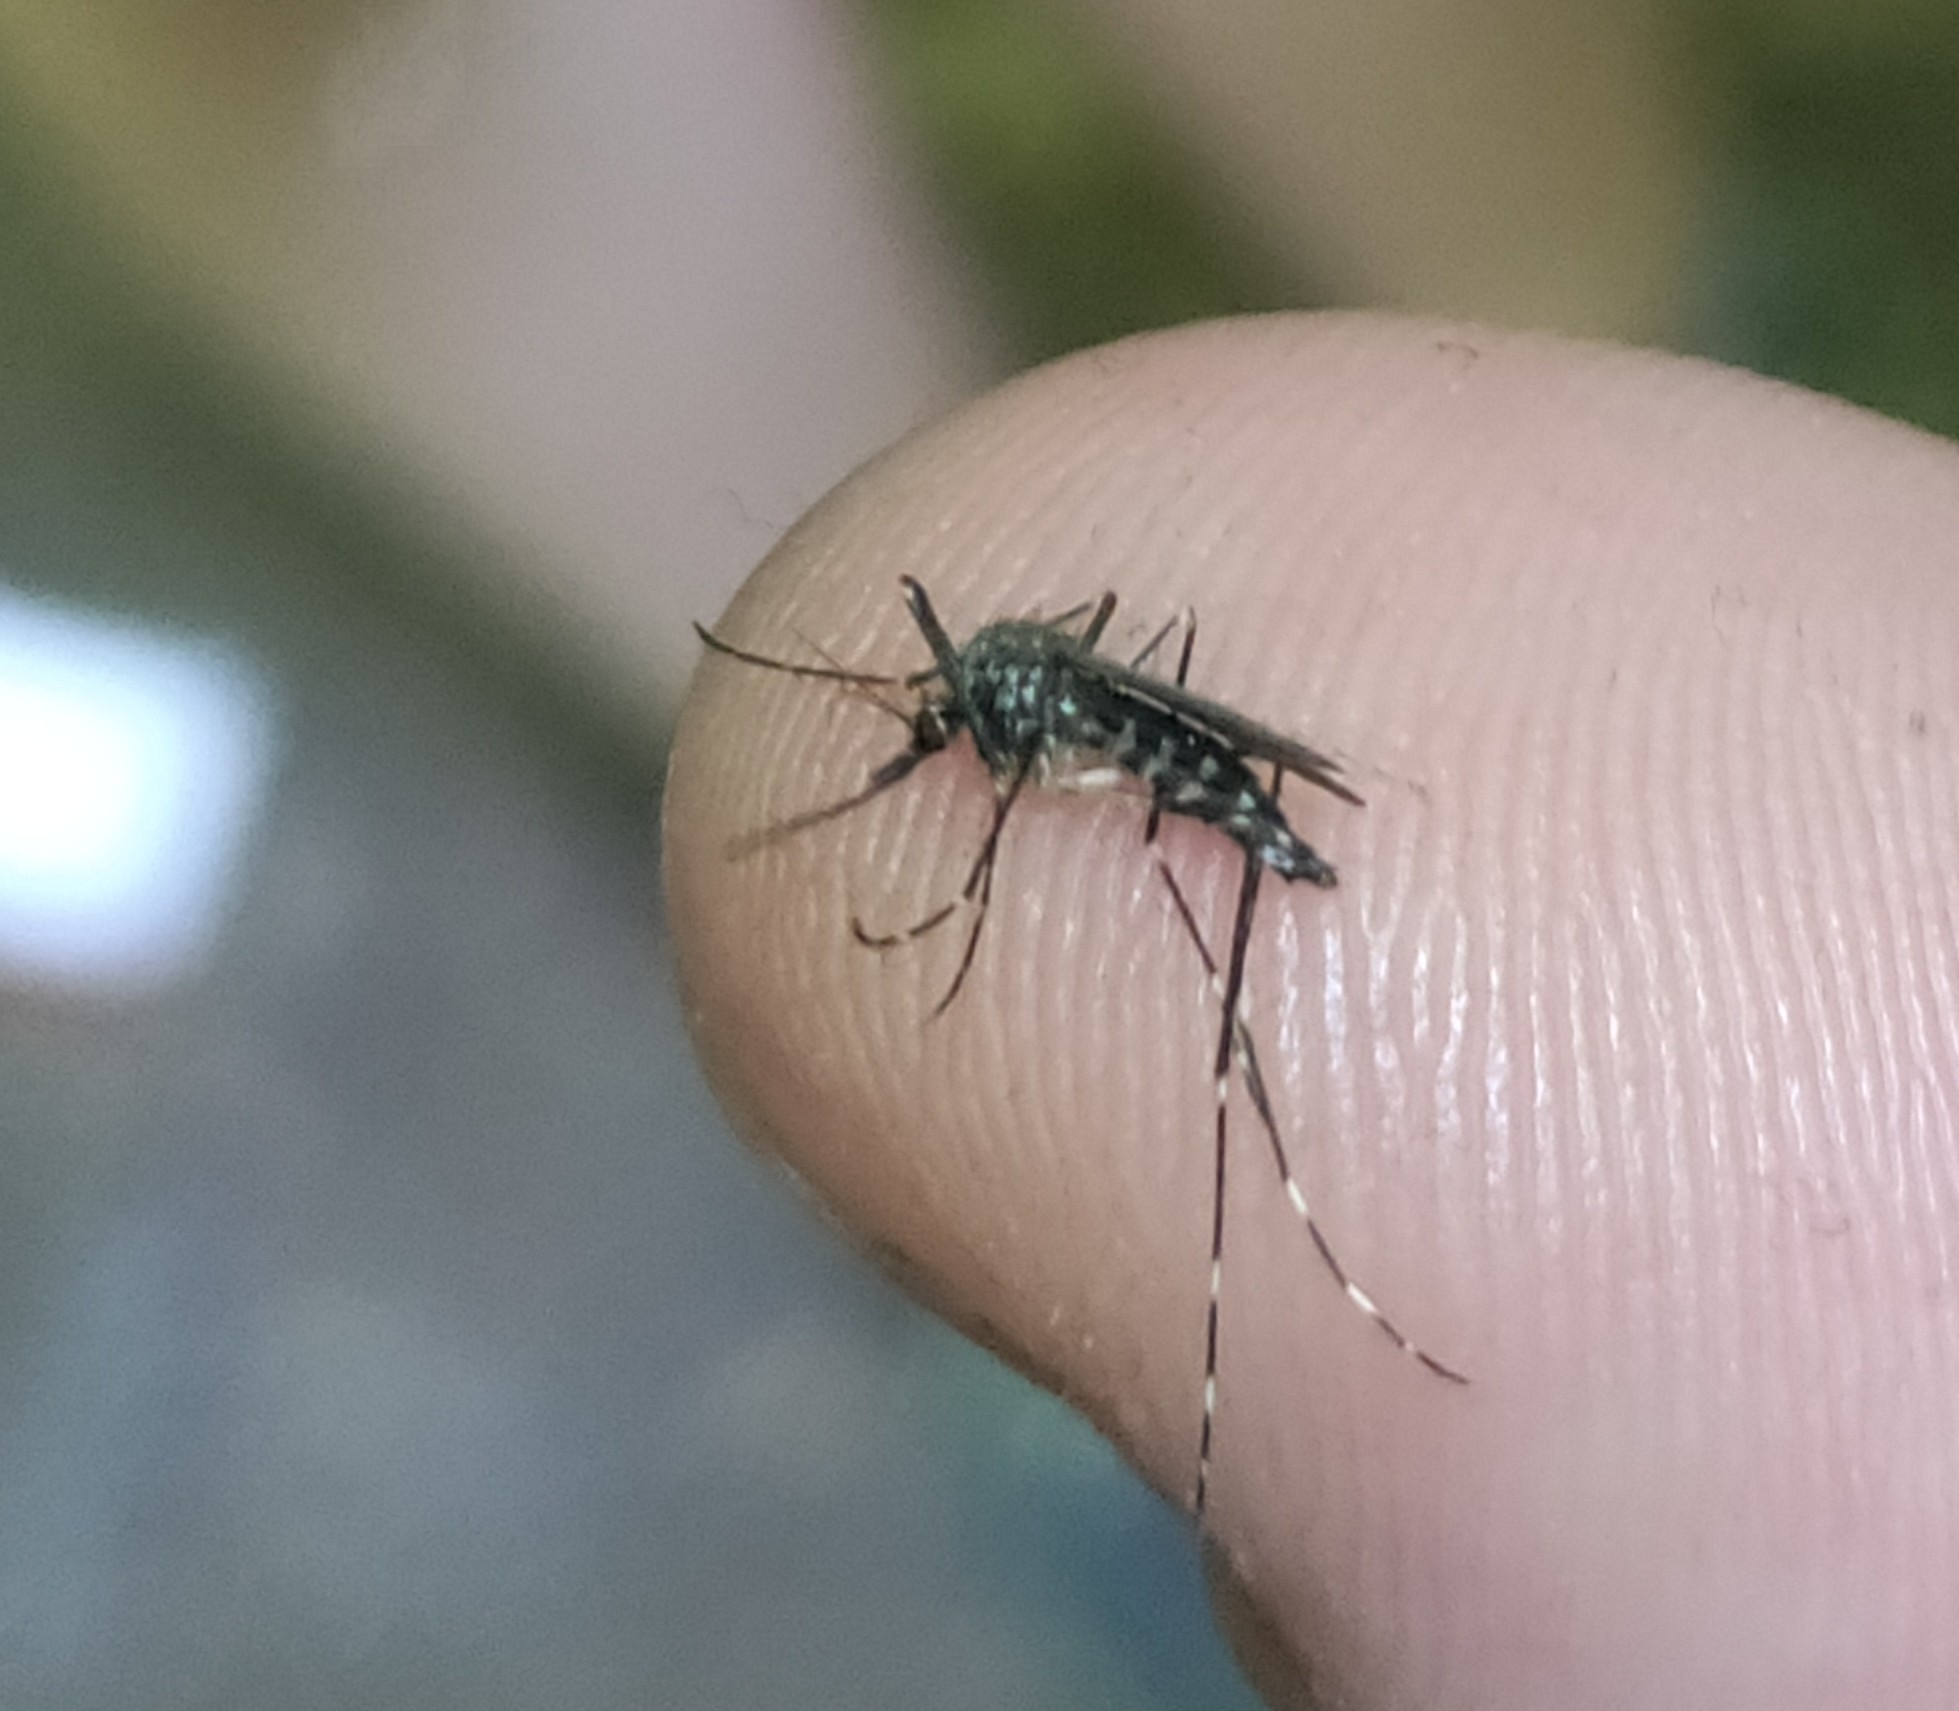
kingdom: Animalia
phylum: Arthropoda
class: Insecta
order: Diptera
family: Culicidae
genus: Aedes
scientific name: Aedes japonicus
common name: Asian bush mosquito
